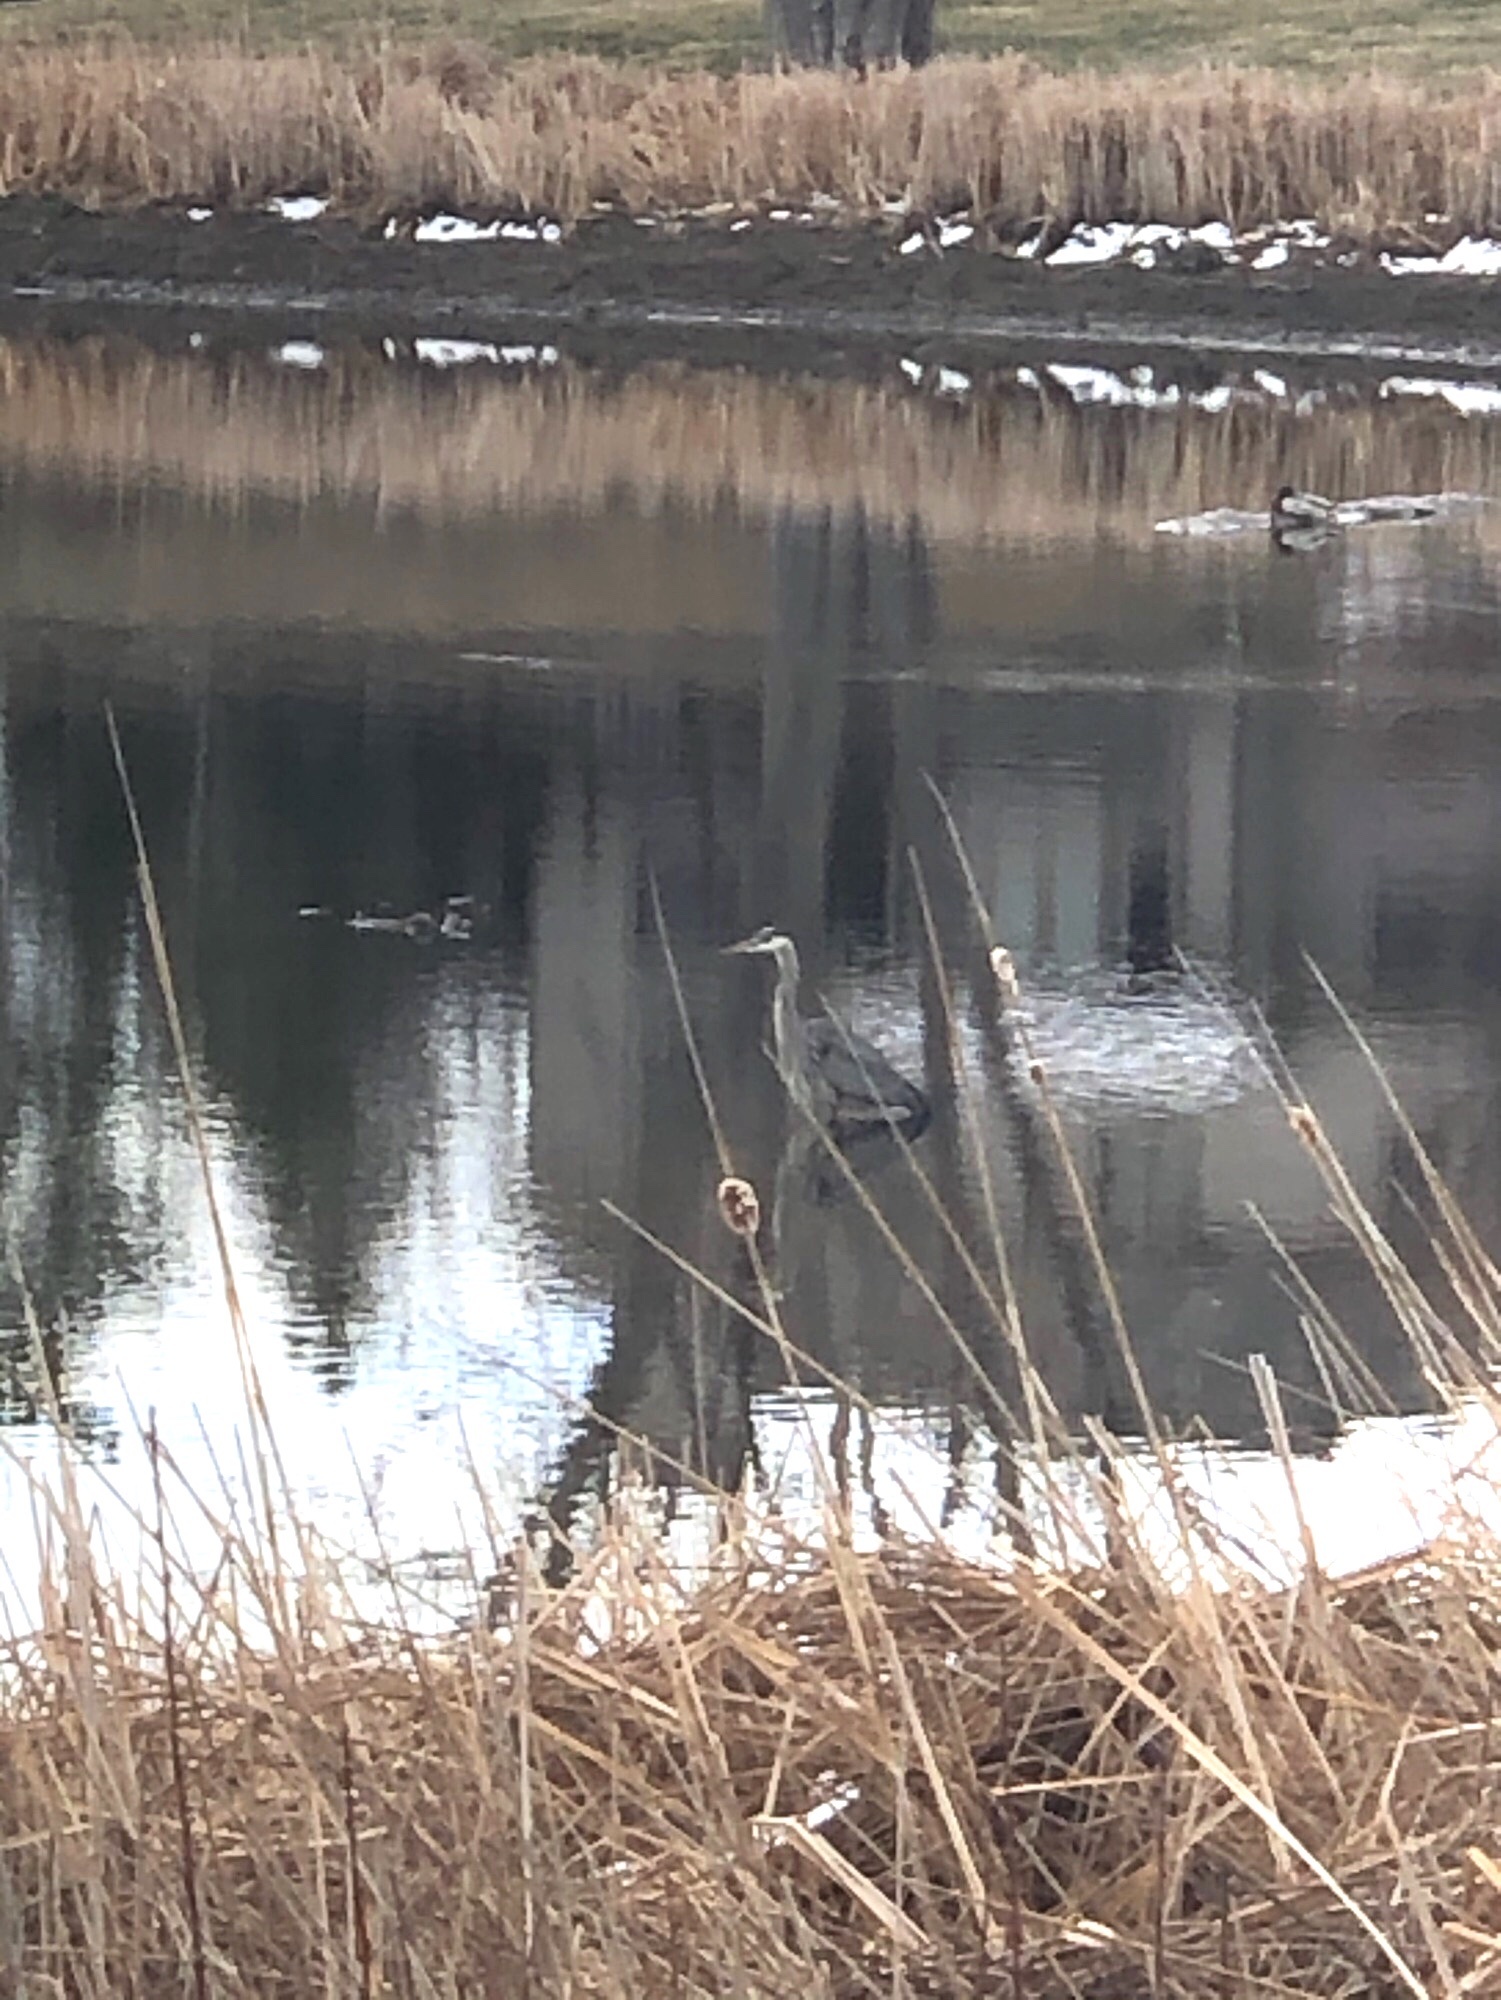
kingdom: Animalia
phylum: Chordata
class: Aves
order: Pelecaniformes
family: Ardeidae
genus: Ardea
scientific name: Ardea herodias
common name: Great blue heron
